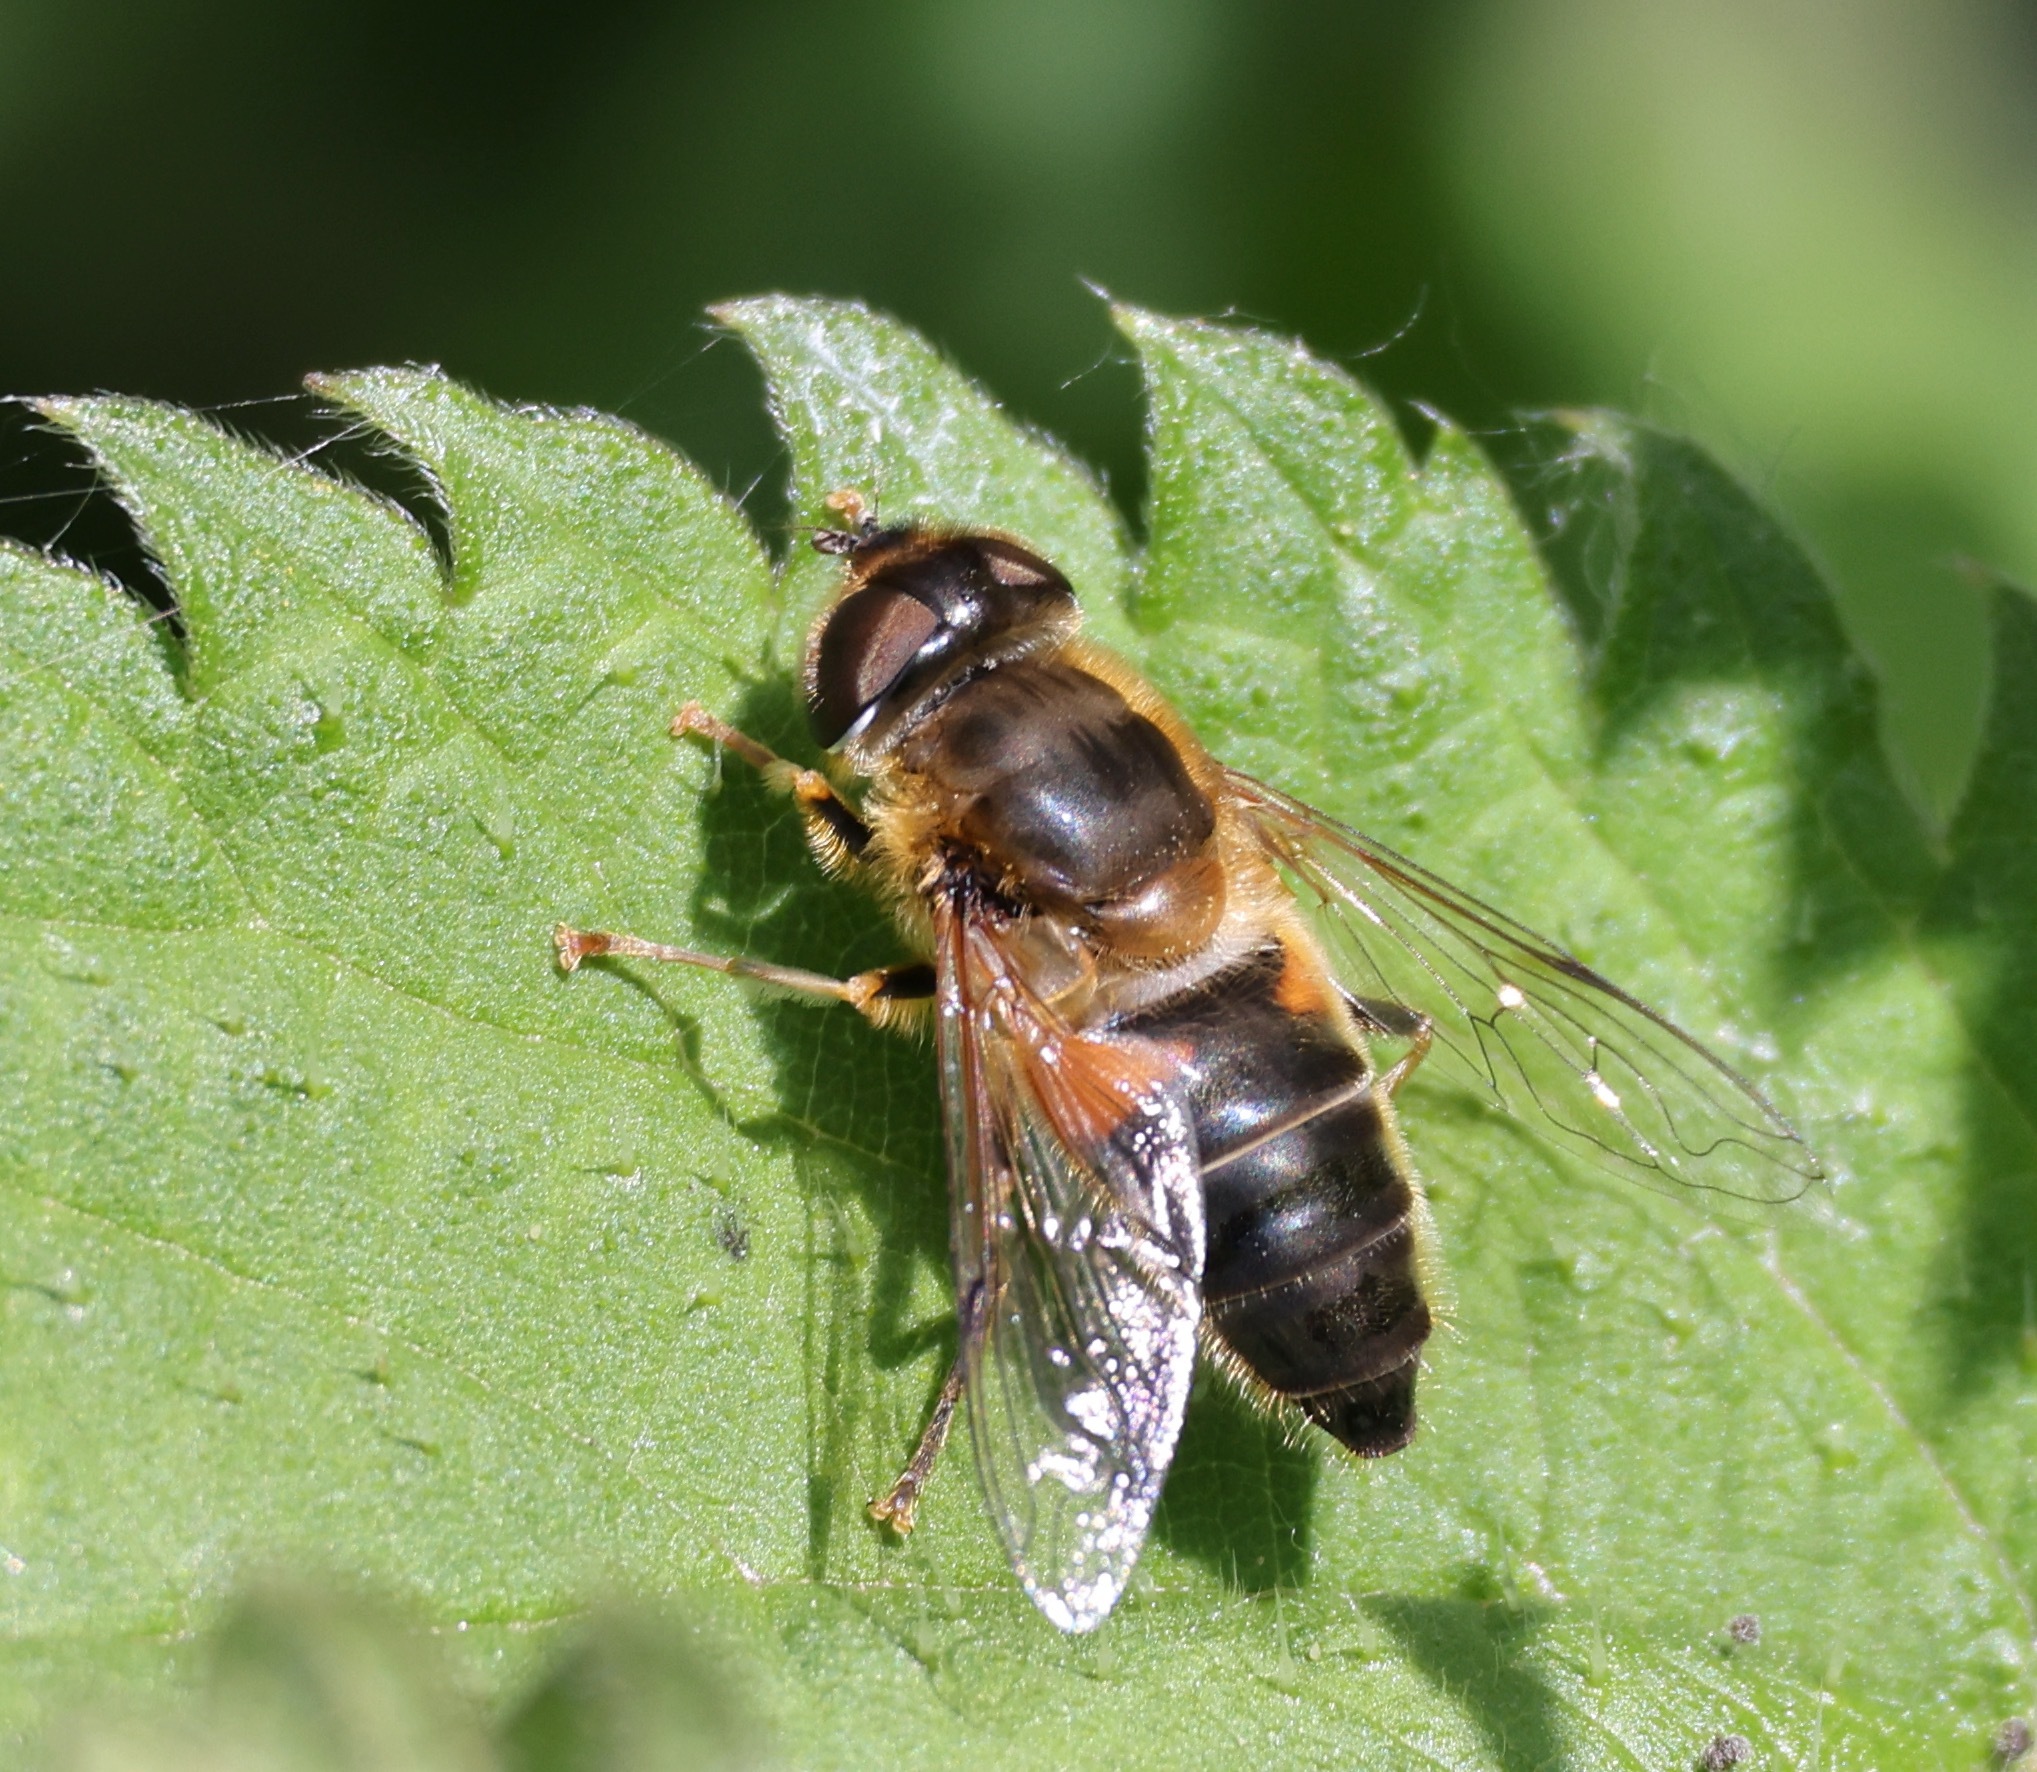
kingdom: Animalia
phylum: Arthropoda
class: Insecta
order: Diptera
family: Syrphidae
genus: Eristalis
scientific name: Eristalis pertinax
